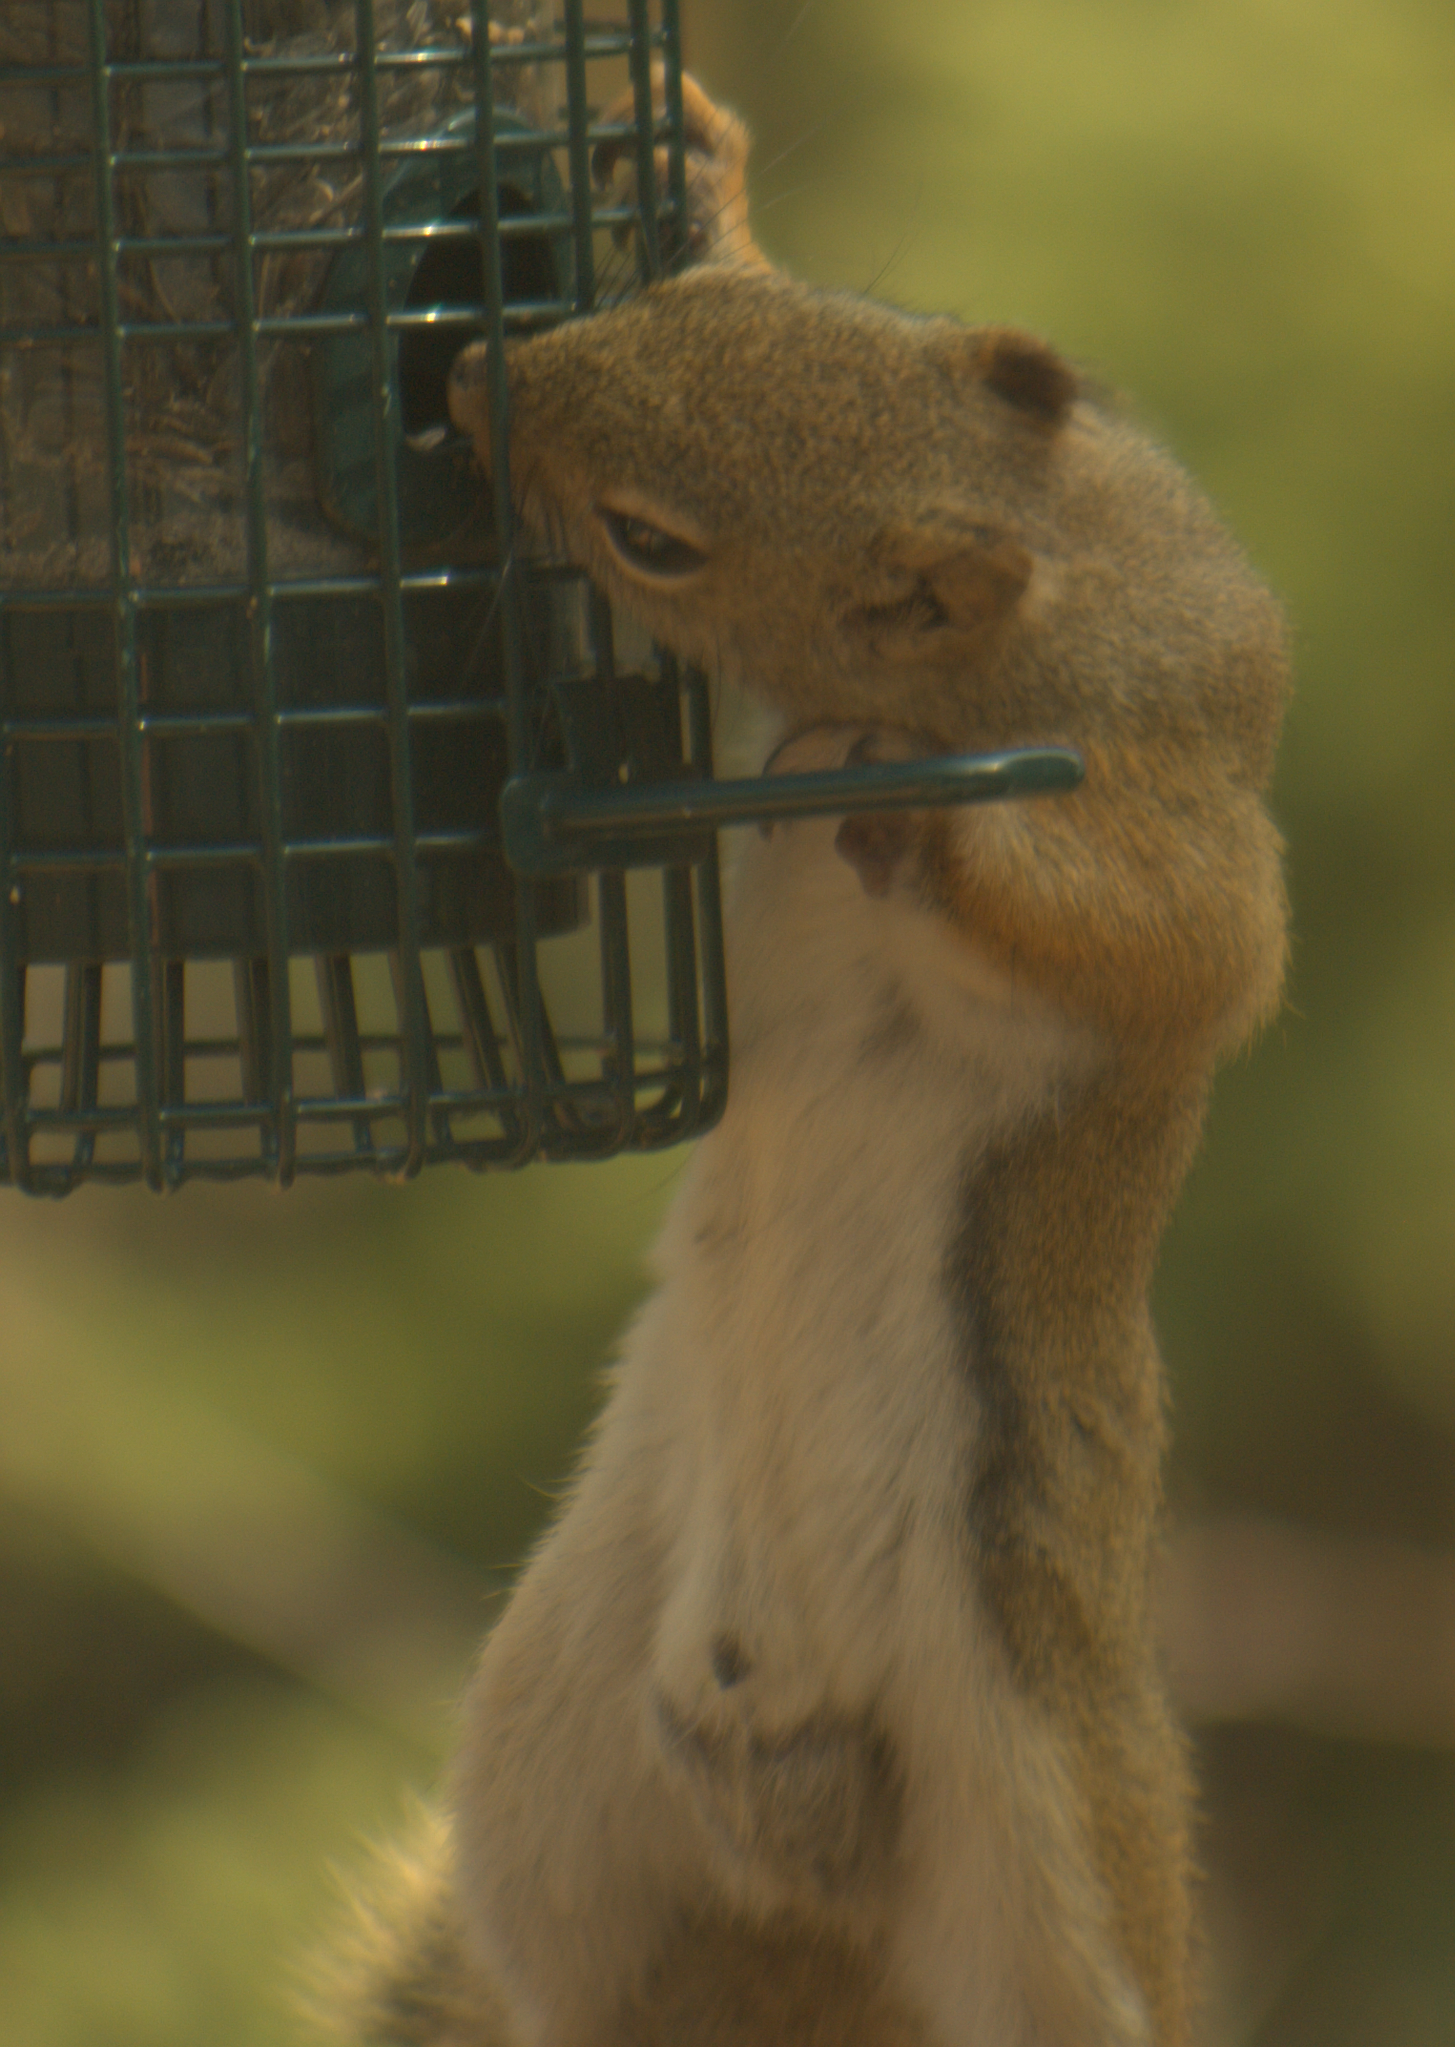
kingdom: Animalia
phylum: Chordata
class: Mammalia
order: Rodentia
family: Sciuridae
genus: Tamiasciurus
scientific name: Tamiasciurus hudsonicus
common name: Red squirrel
